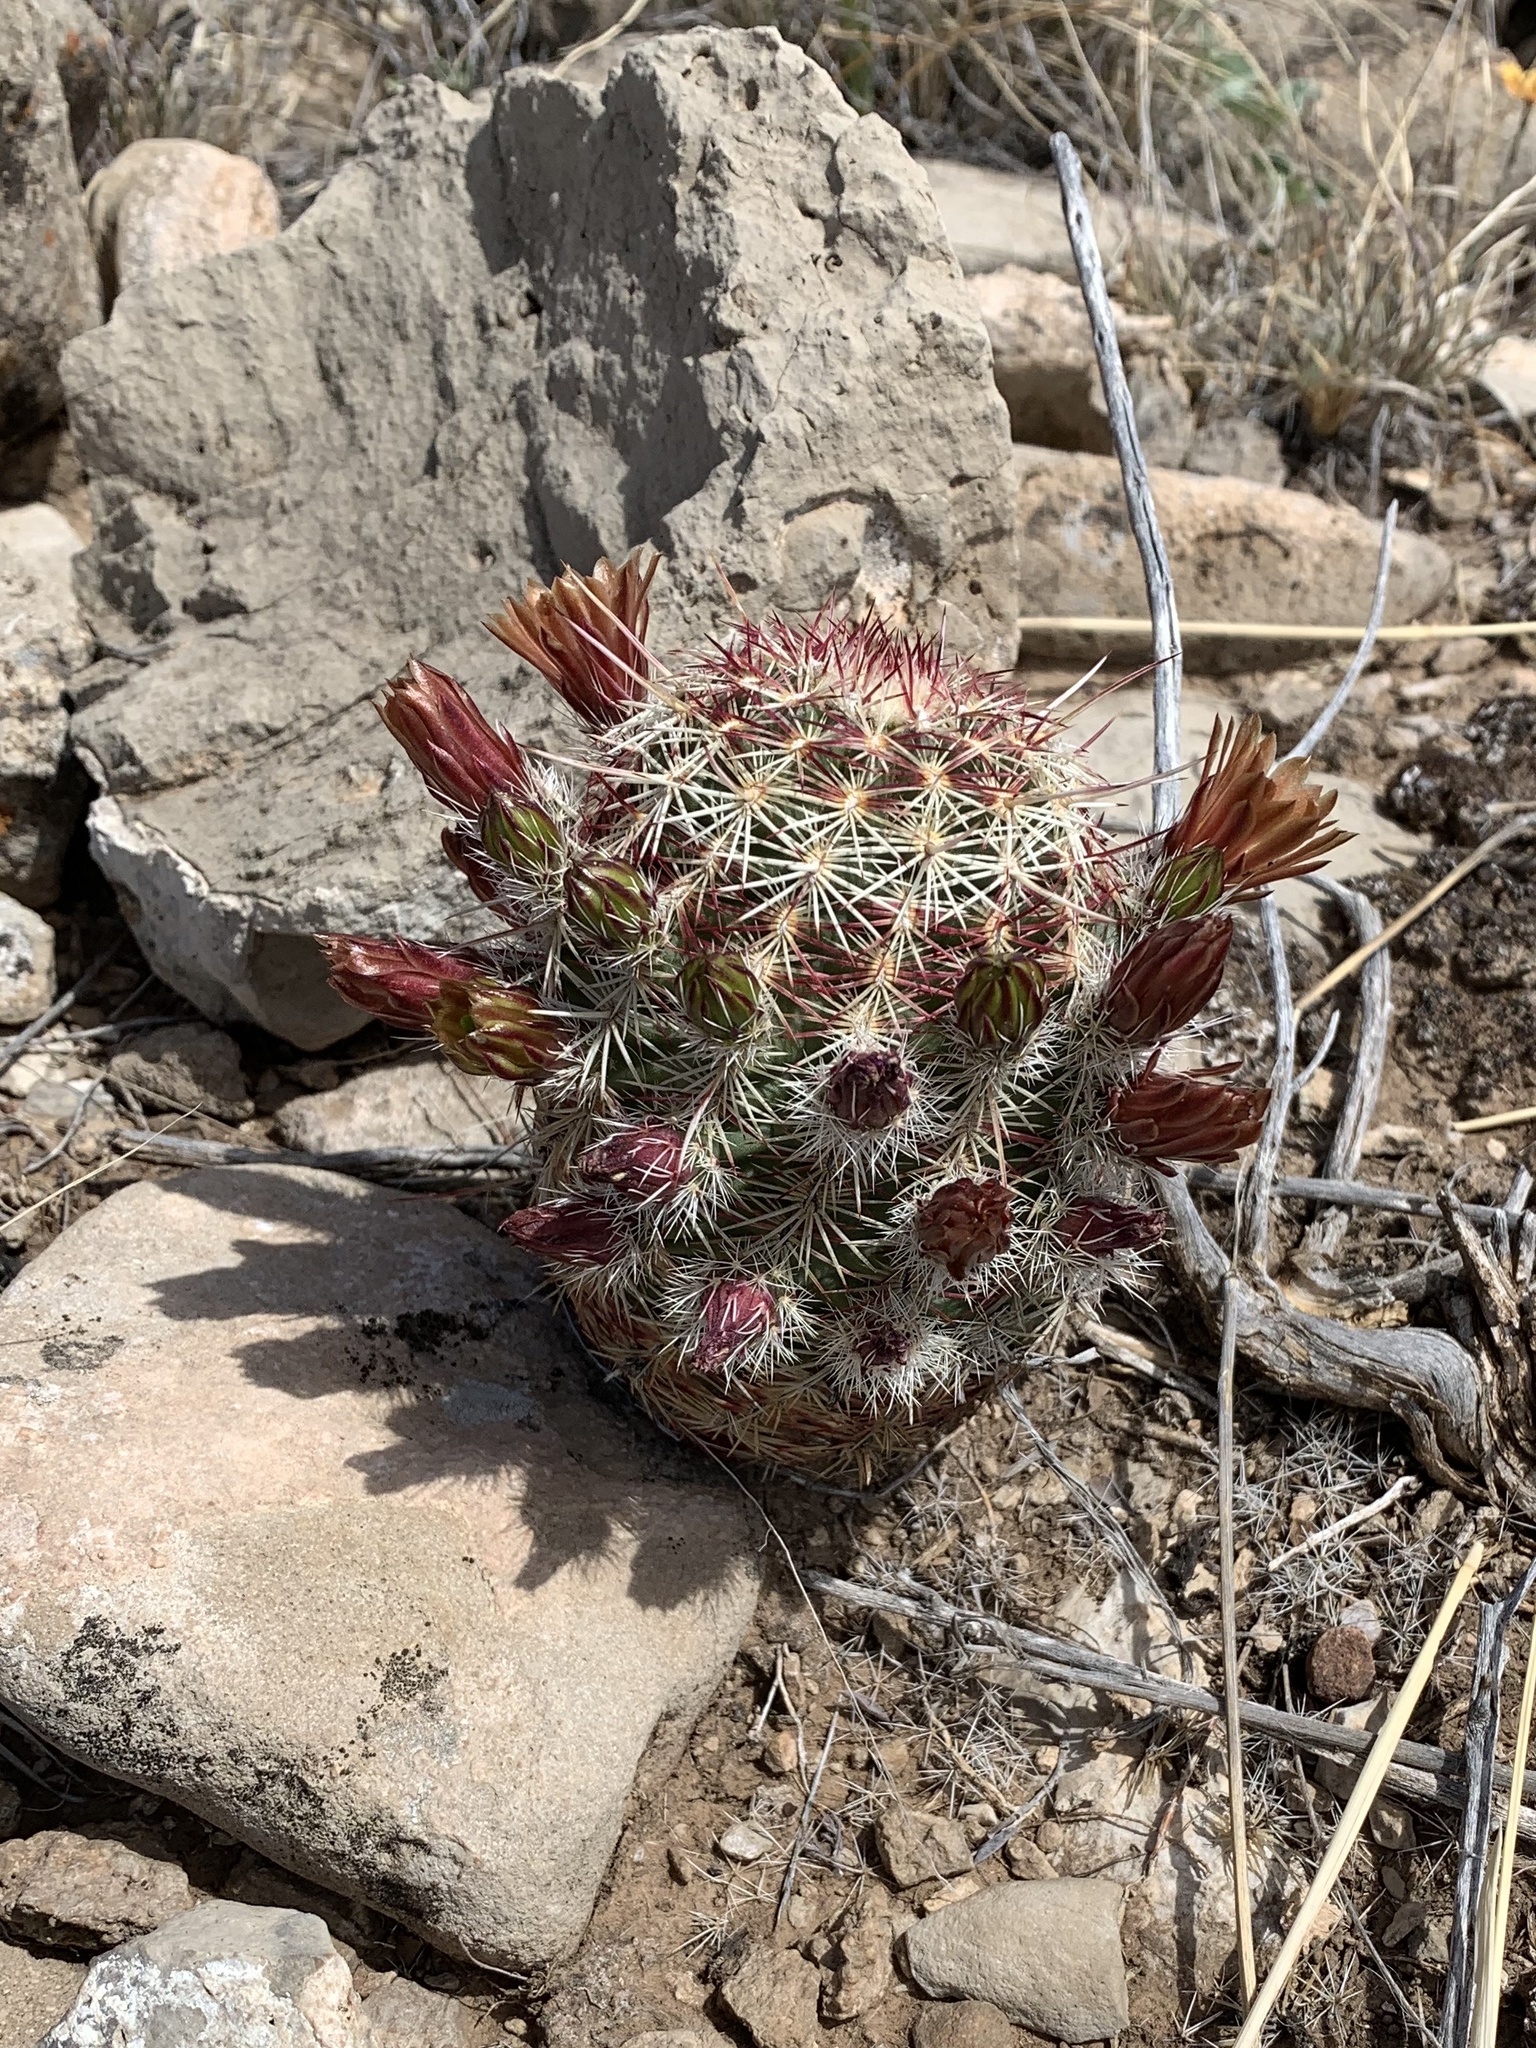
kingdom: Plantae
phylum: Tracheophyta
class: Magnoliopsida
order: Caryophyllales
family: Cactaceae
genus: Echinocereus
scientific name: Echinocereus viridiflorus
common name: Nylon hedgehog cactus
